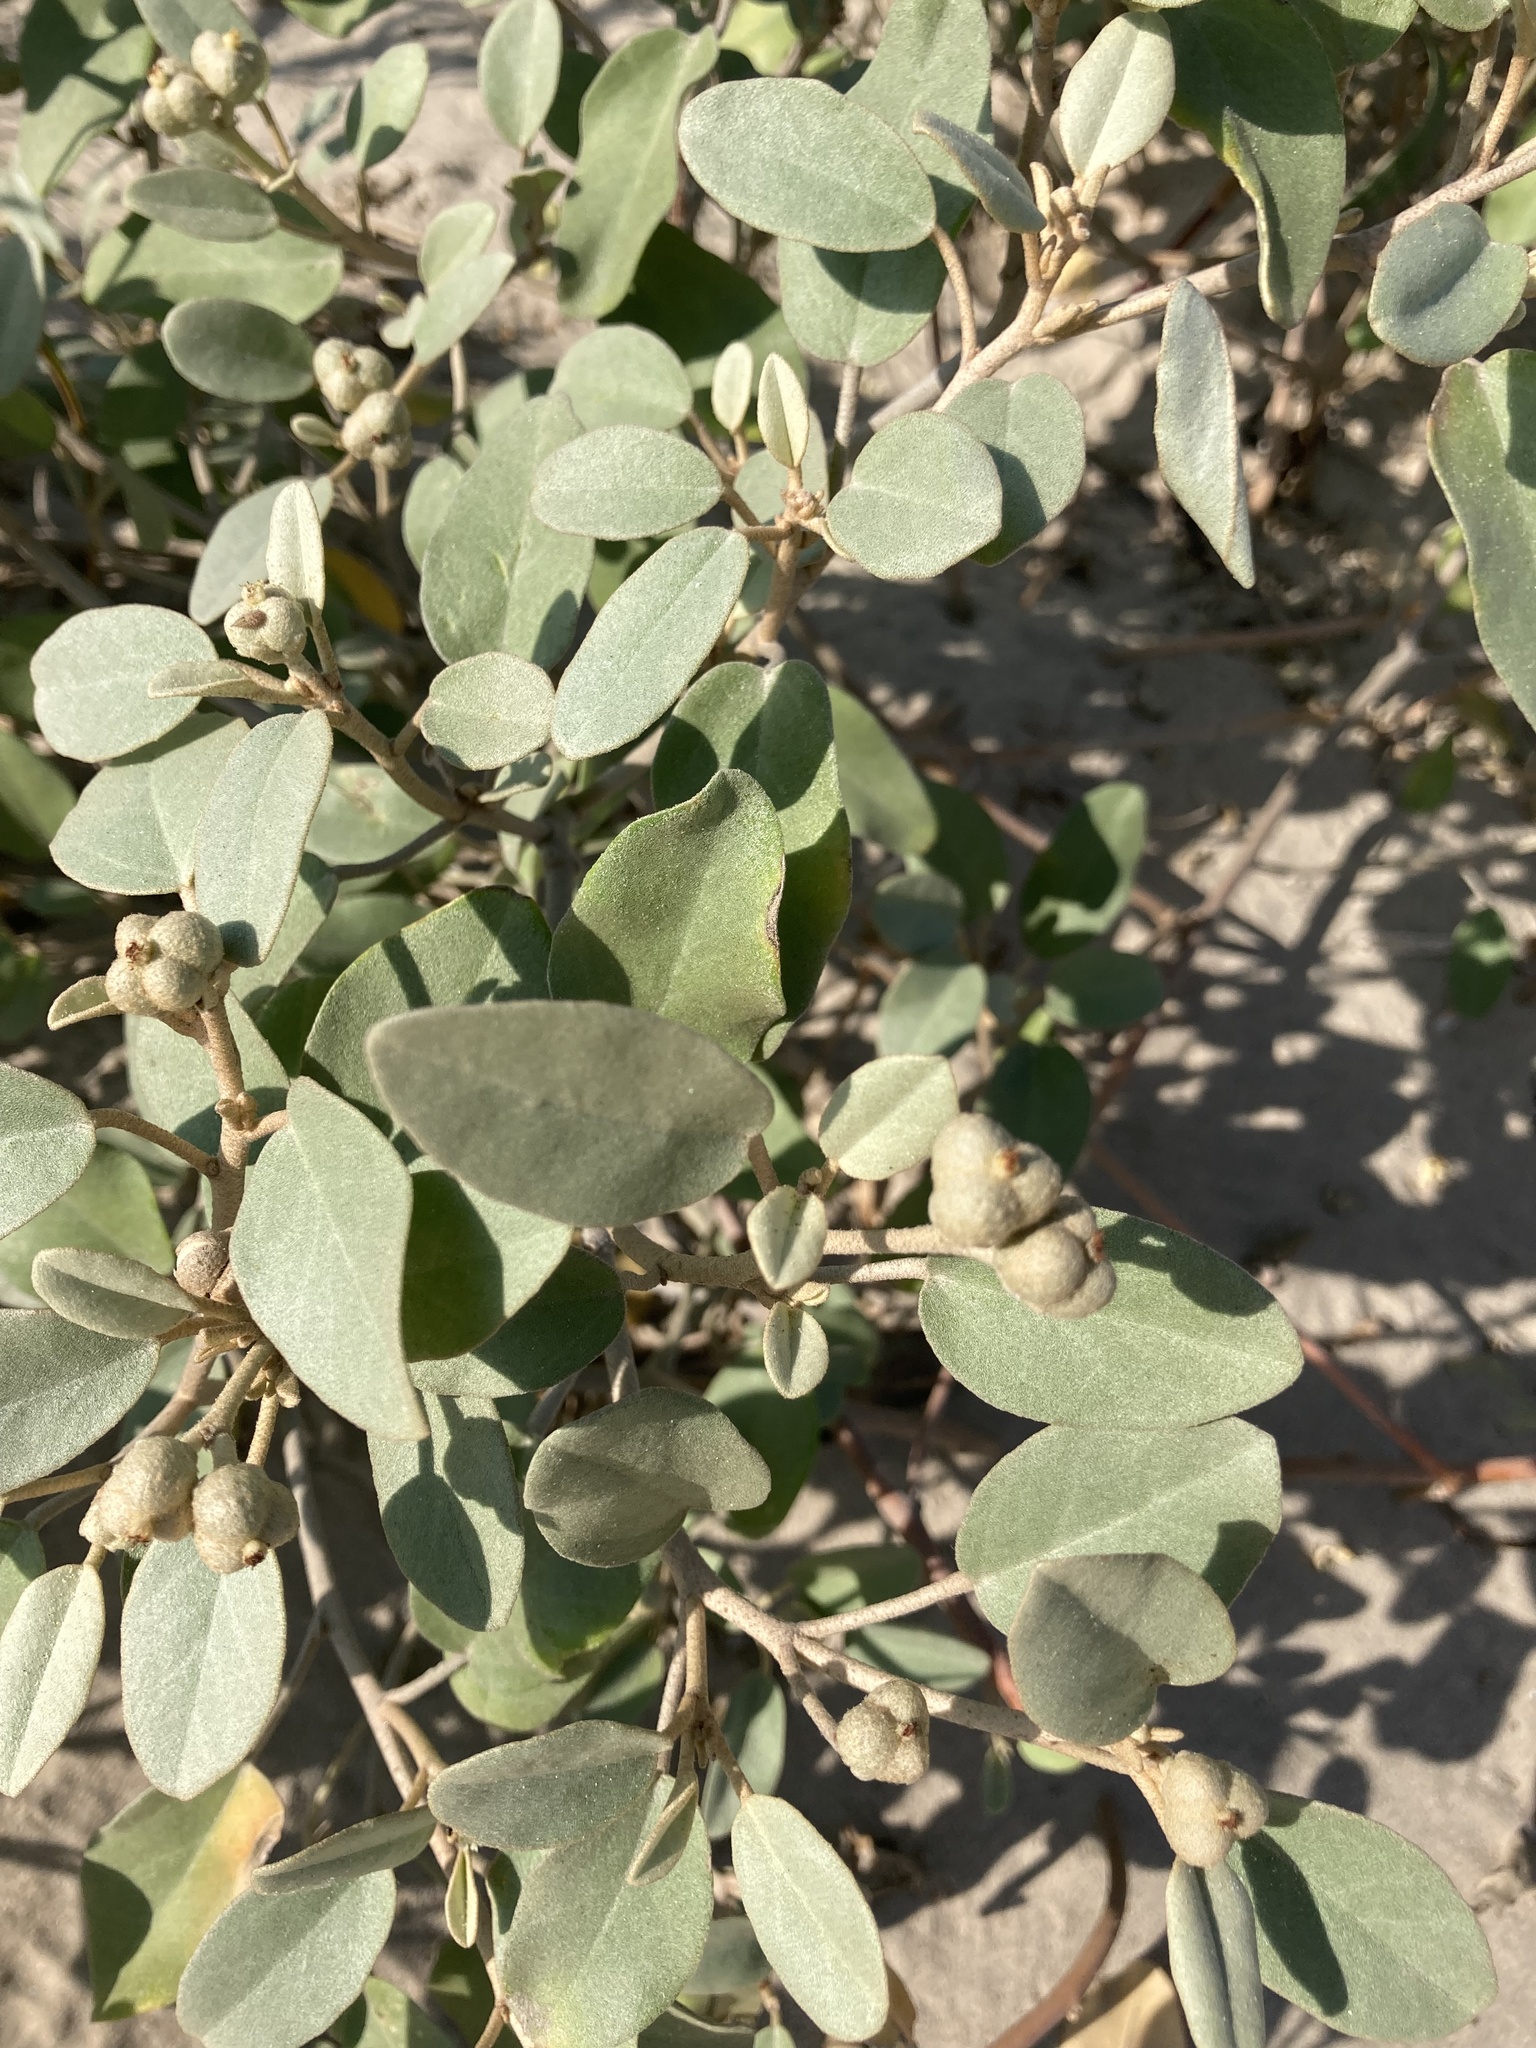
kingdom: Plantae
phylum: Tracheophyta
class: Magnoliopsida
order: Malpighiales
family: Euphorbiaceae
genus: Croton
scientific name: Croton punctatus
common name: Beach-tea
